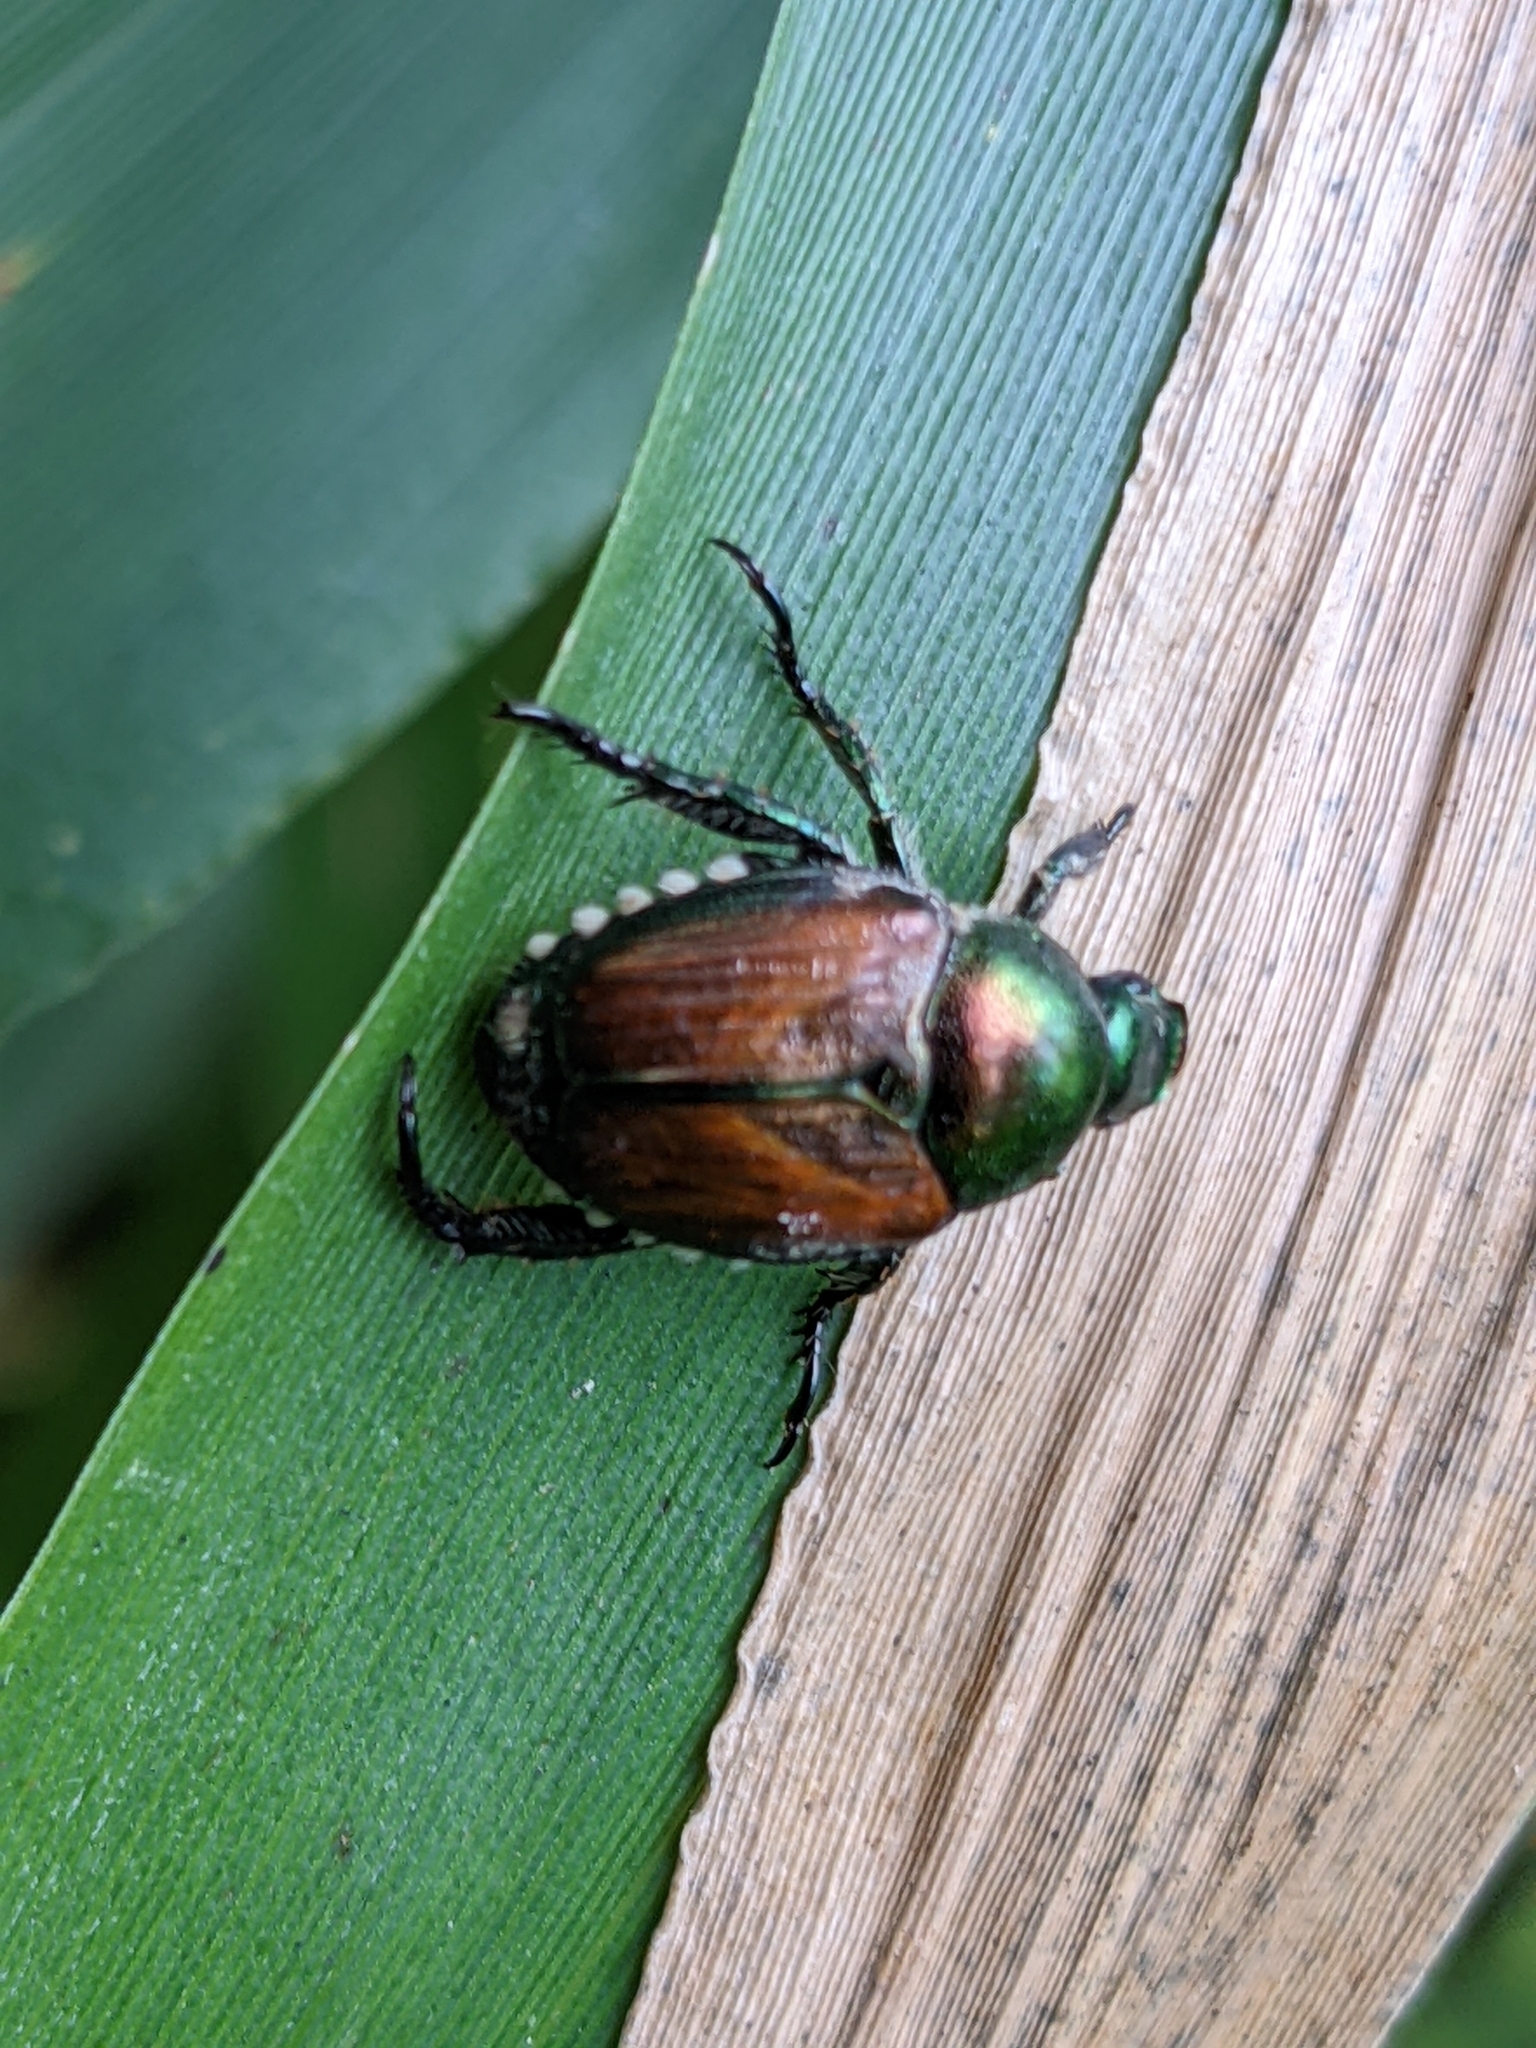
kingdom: Animalia
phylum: Arthropoda
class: Insecta
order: Coleoptera
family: Scarabaeidae
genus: Popillia
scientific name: Popillia japonica
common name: Japanese beetle
